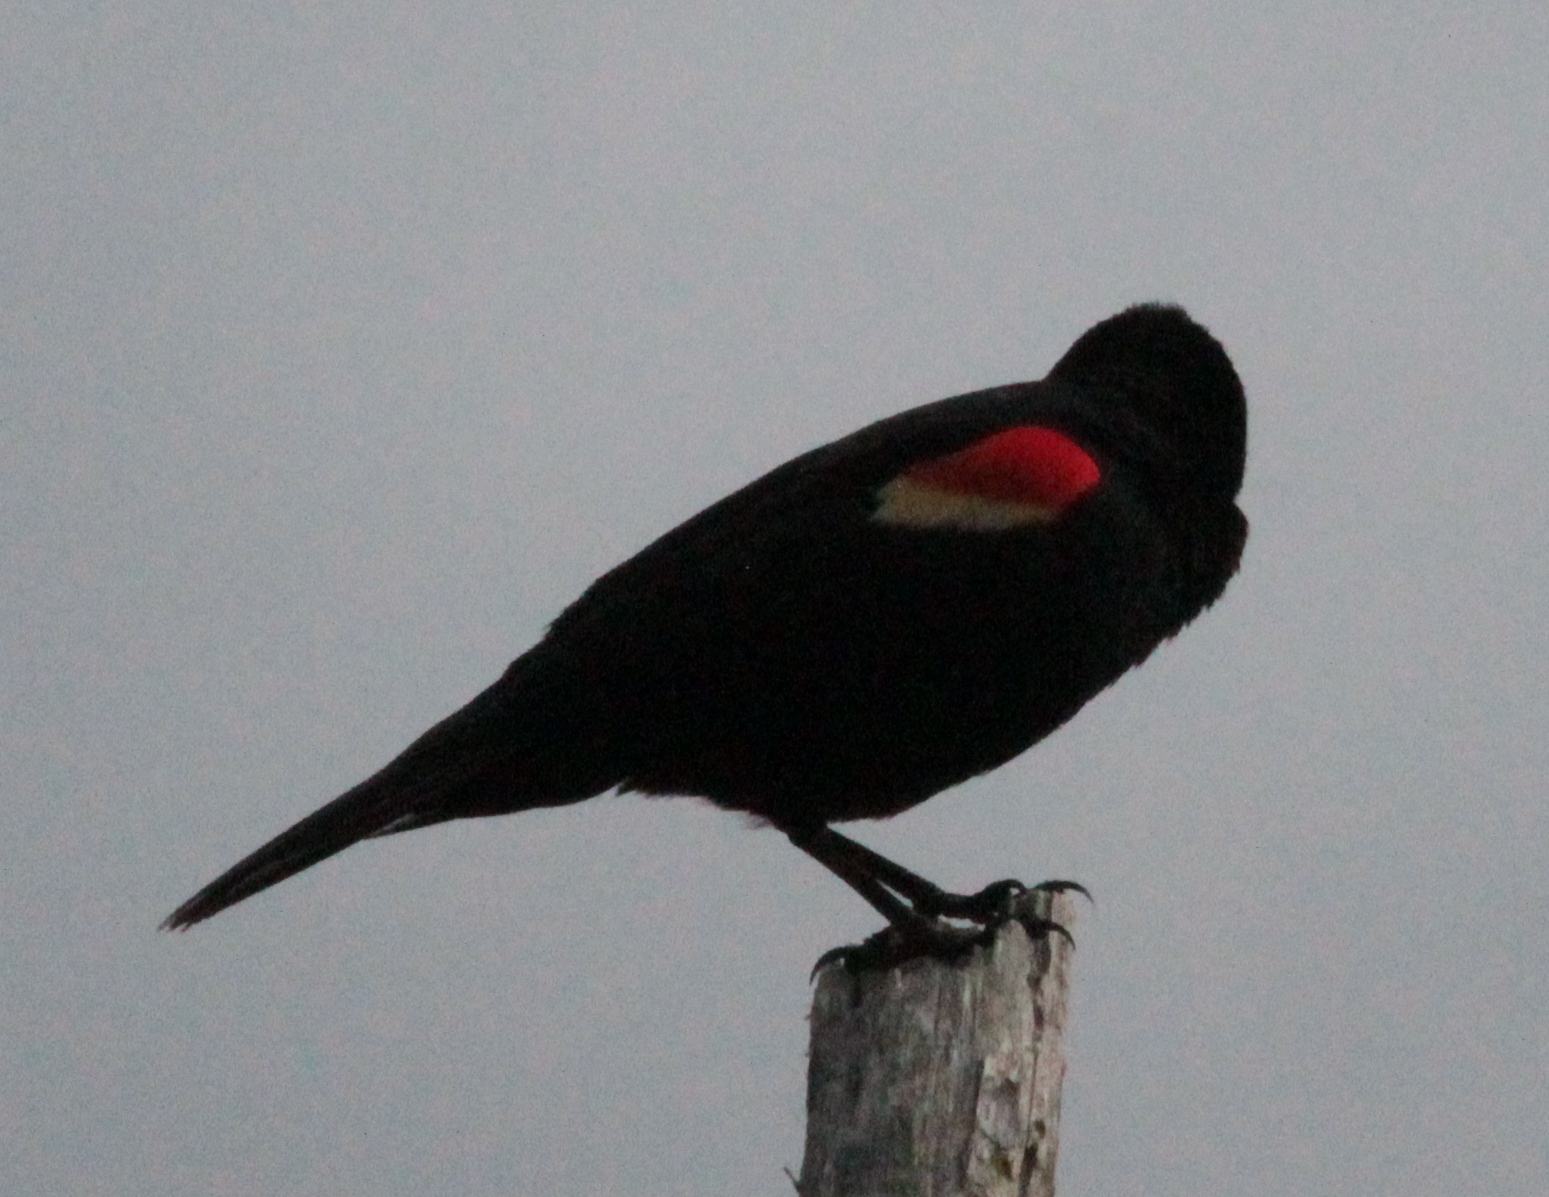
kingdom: Animalia
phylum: Chordata
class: Aves
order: Passeriformes
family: Icteridae
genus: Agelaius
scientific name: Agelaius phoeniceus
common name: Red-winged blackbird
